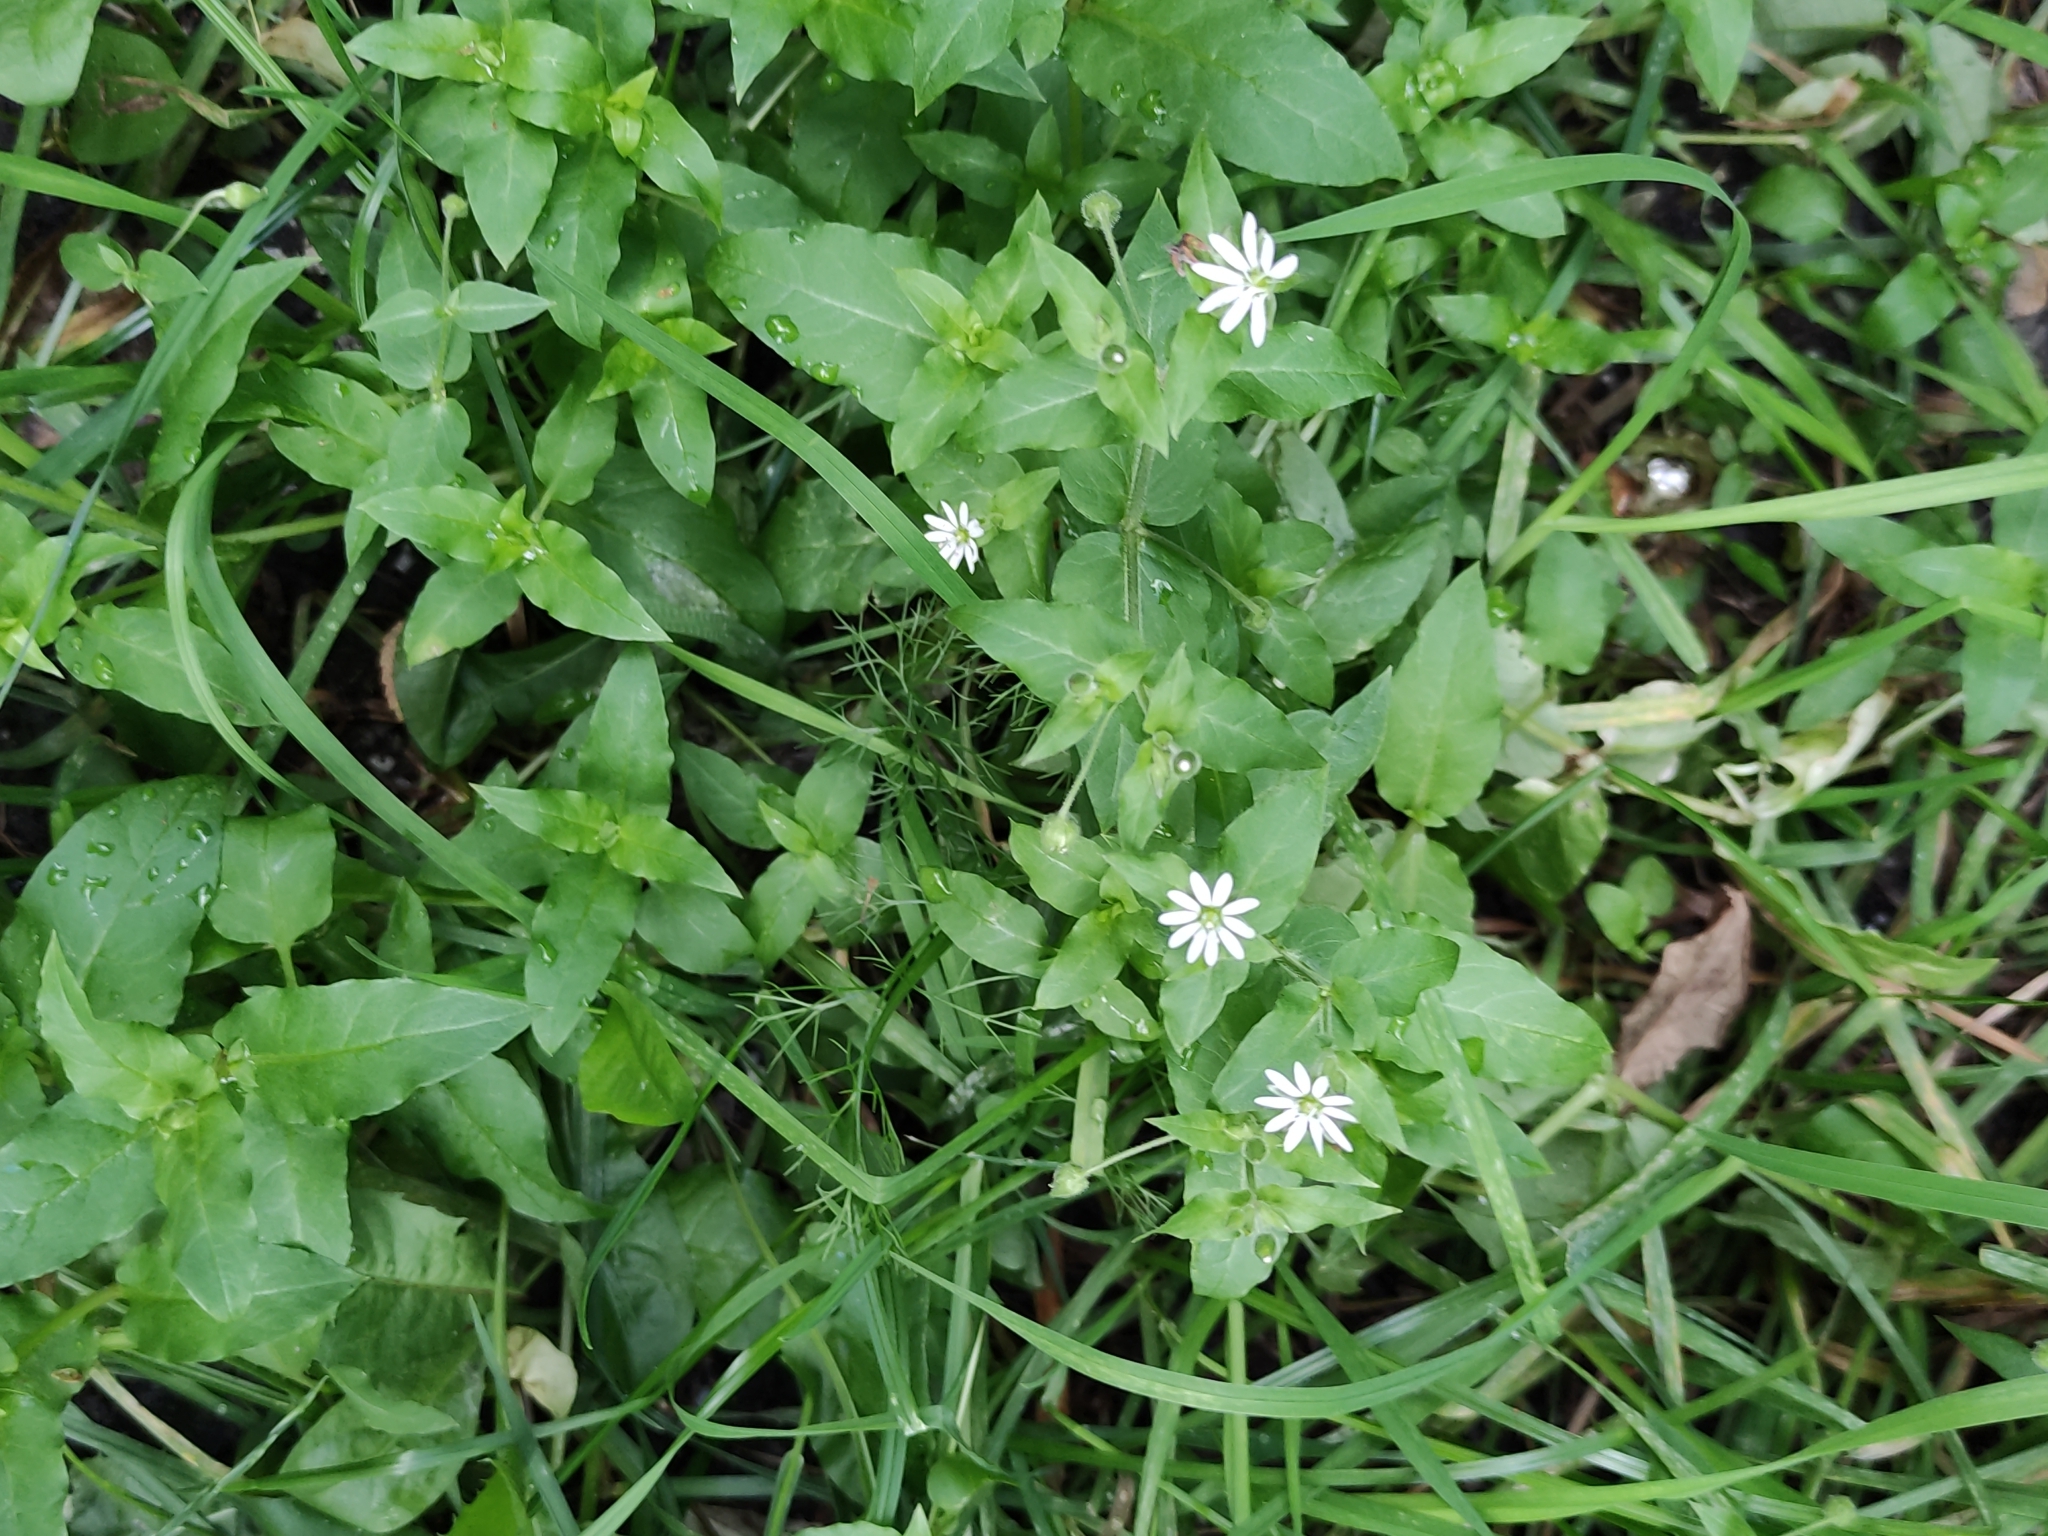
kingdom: Plantae
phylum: Tracheophyta
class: Magnoliopsida
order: Caryophyllales
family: Caryophyllaceae
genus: Stellaria
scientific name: Stellaria aquatica
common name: Water chickweed
